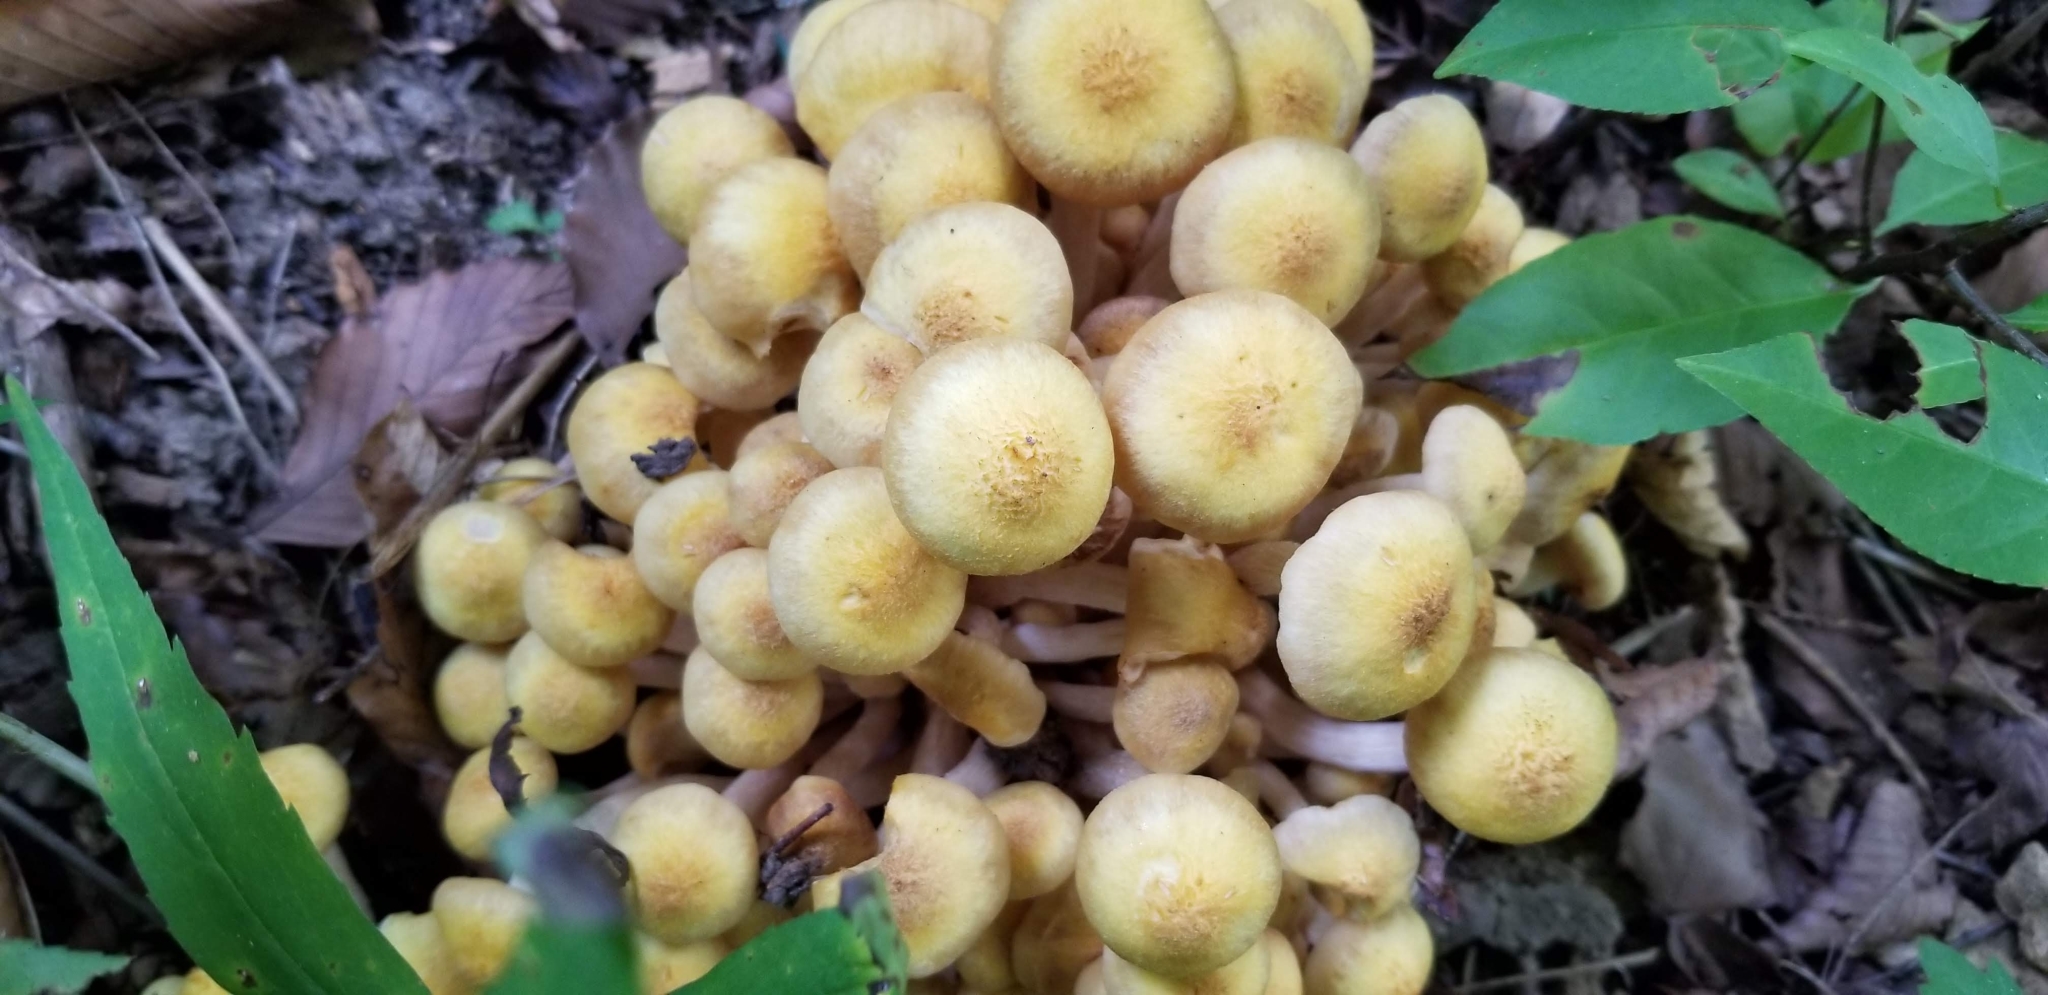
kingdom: Fungi
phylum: Basidiomycota
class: Agaricomycetes
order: Agaricales
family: Strophariaceae
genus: Hypholoma
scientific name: Hypholoma fasciculare
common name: Sulphur tuft
